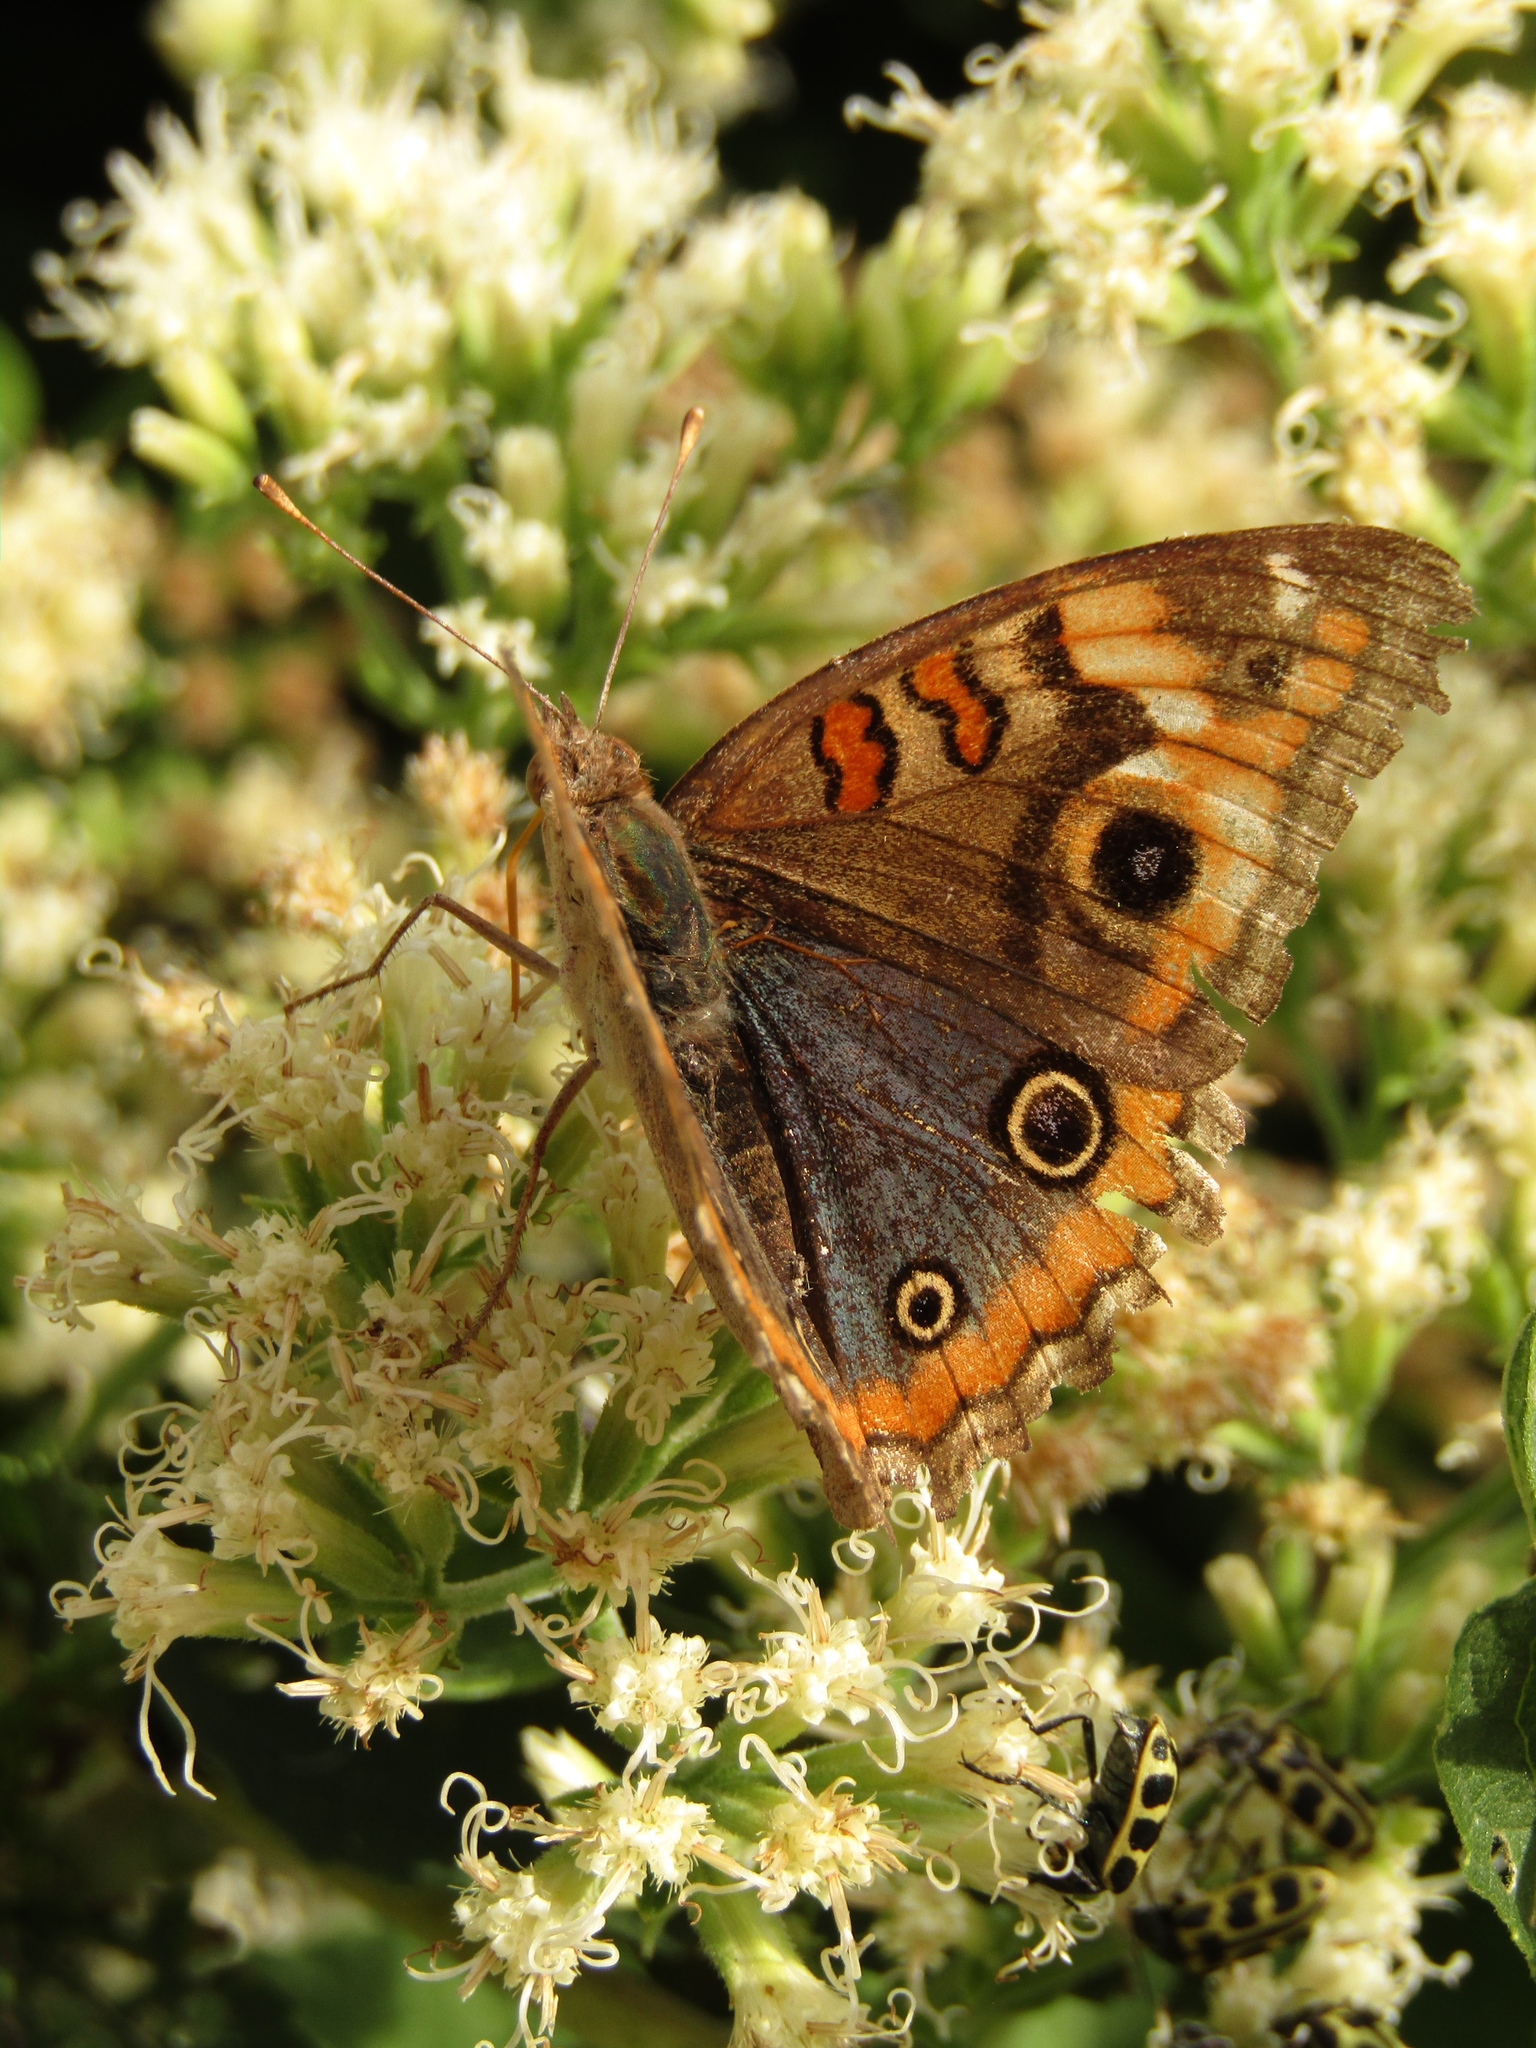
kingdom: Animalia
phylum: Arthropoda
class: Insecta
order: Lepidoptera
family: Nymphalidae
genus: Junonia
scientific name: Junonia lavinia
